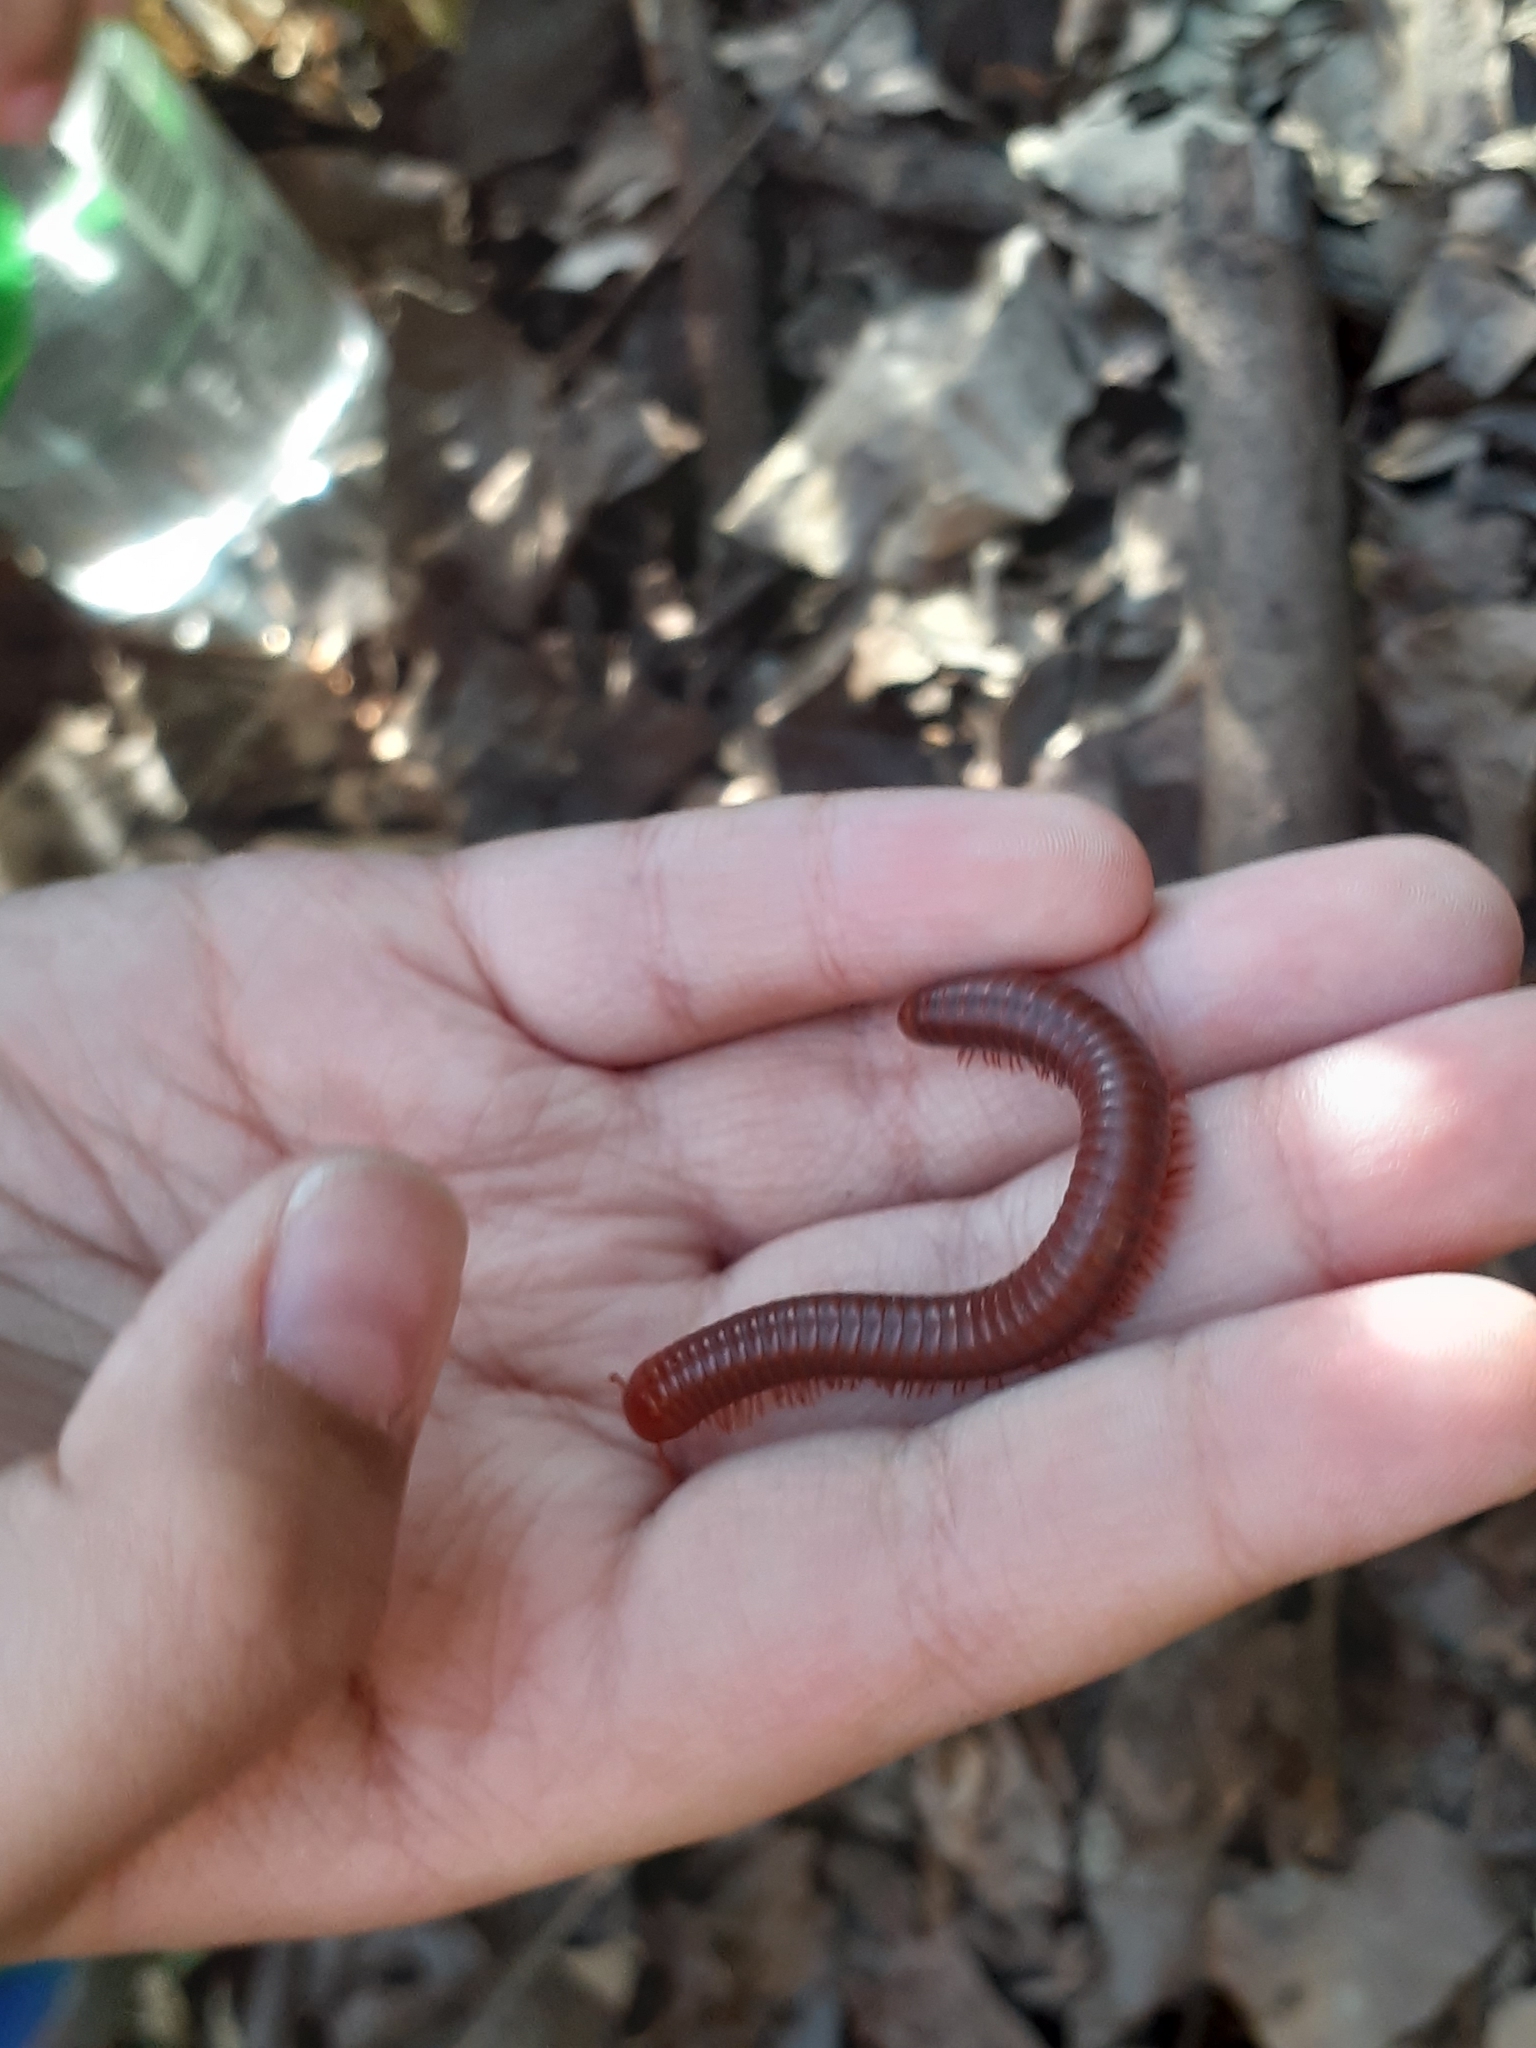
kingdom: Animalia
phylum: Arthropoda
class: Diplopoda
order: Spirobolida
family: Pachybolidae
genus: Trigoniulus
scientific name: Trigoniulus corallinus
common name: Millipede
